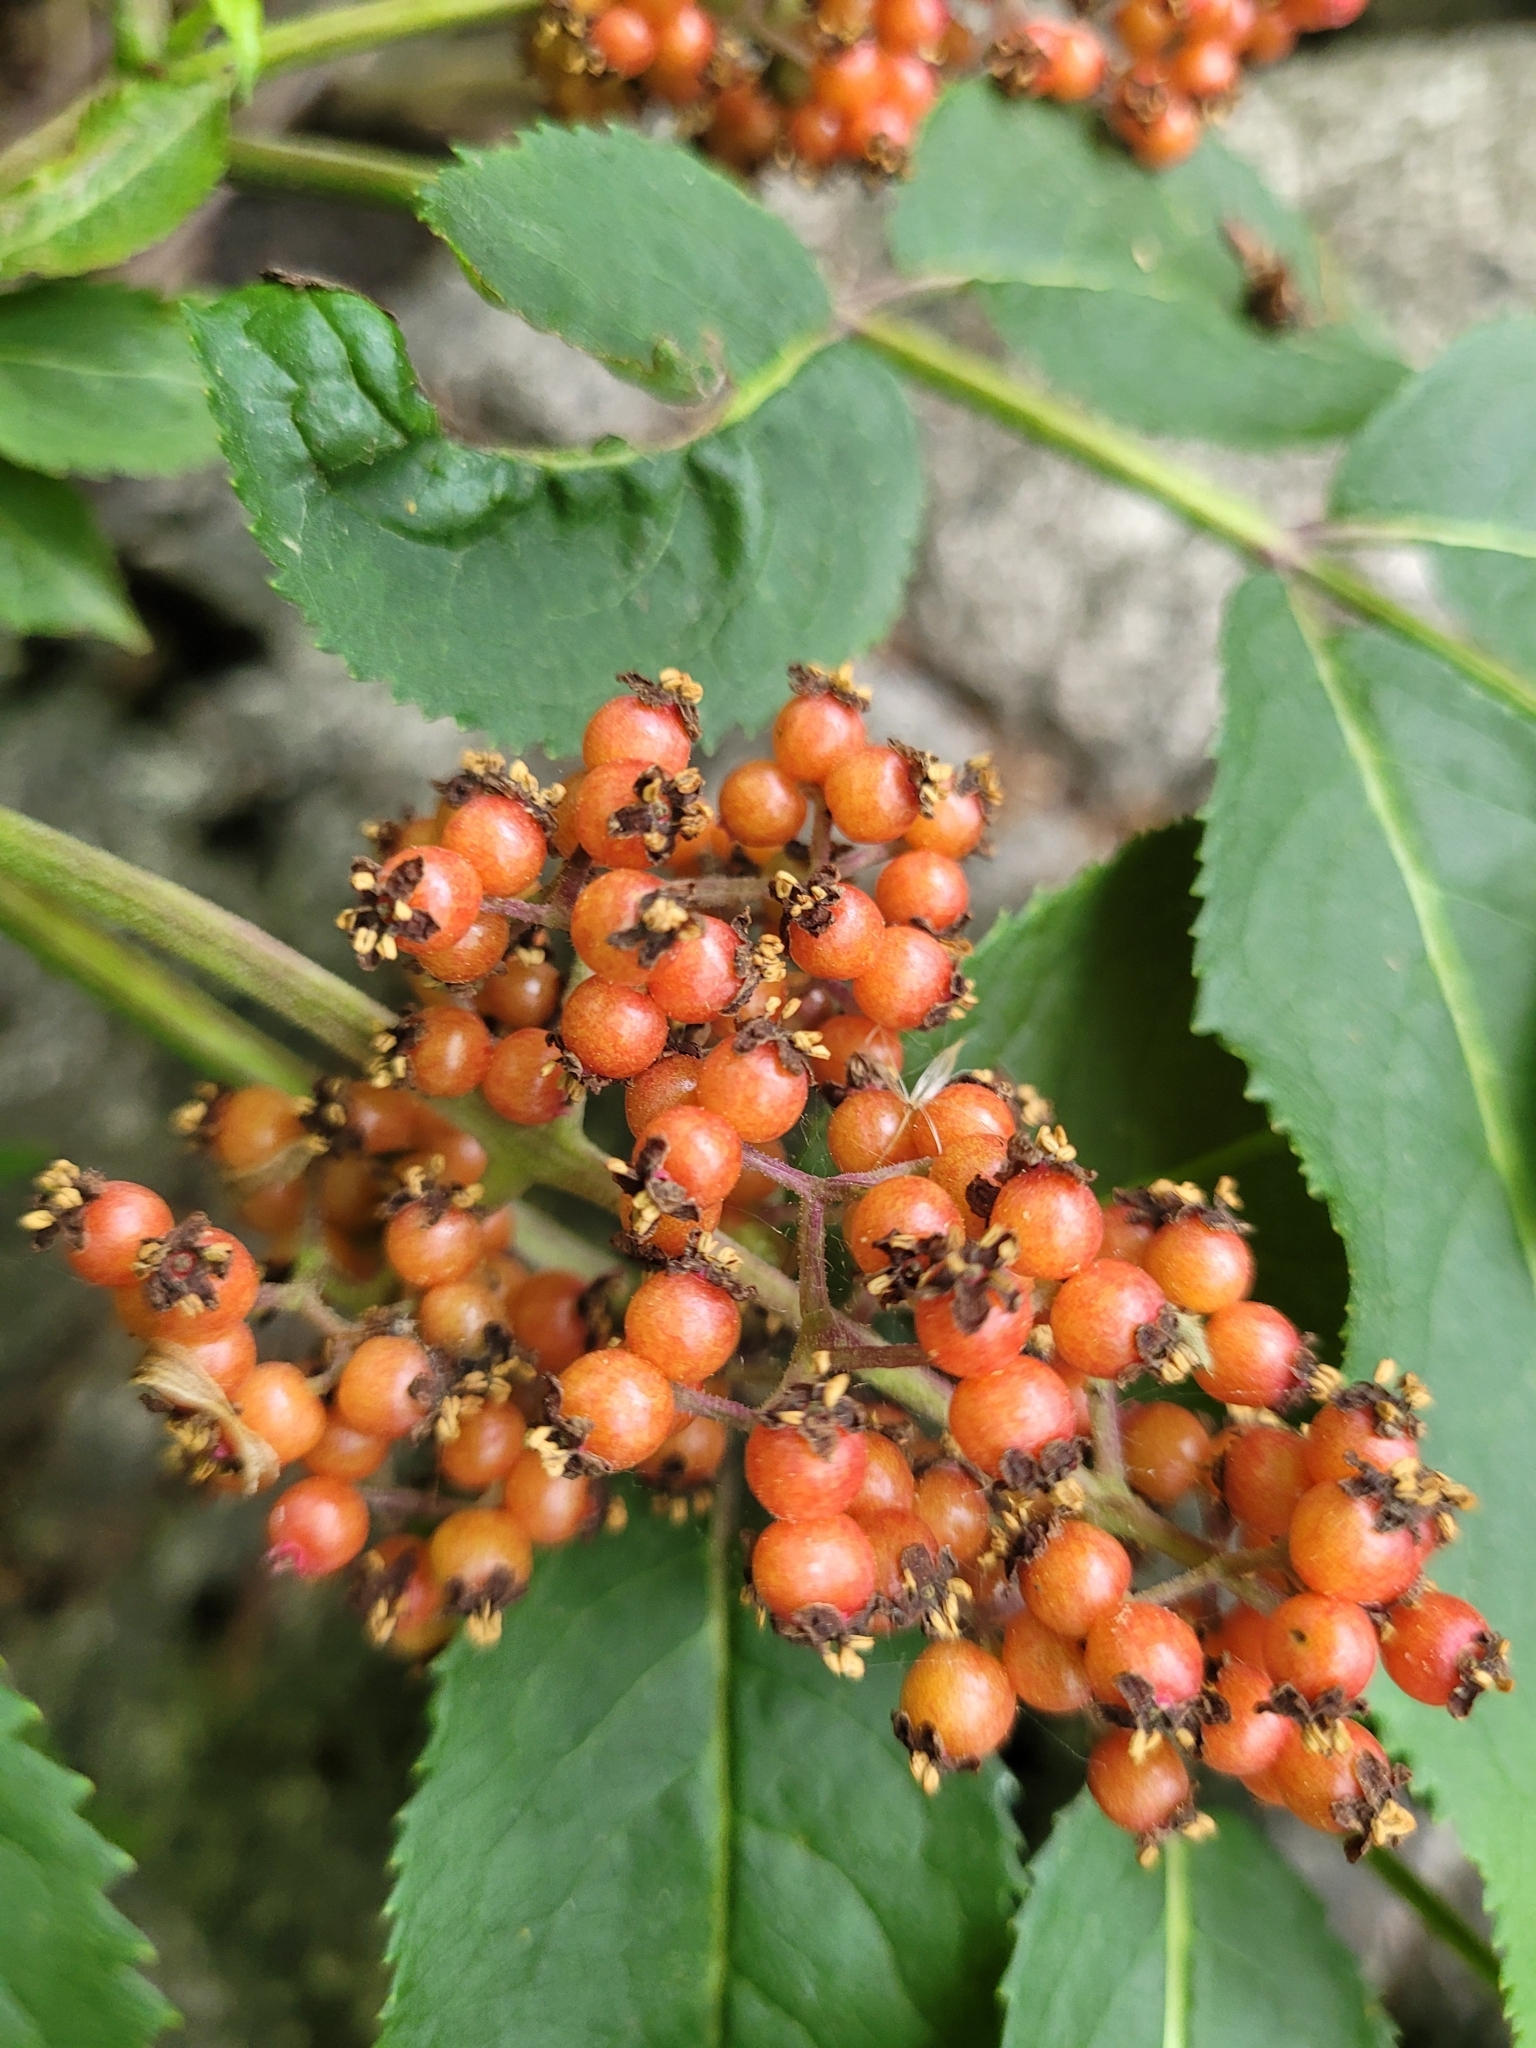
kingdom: Plantae
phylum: Tracheophyta
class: Magnoliopsida
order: Dipsacales
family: Viburnaceae
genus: Sambucus
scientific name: Sambucus racemosa
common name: Red-berried elder
